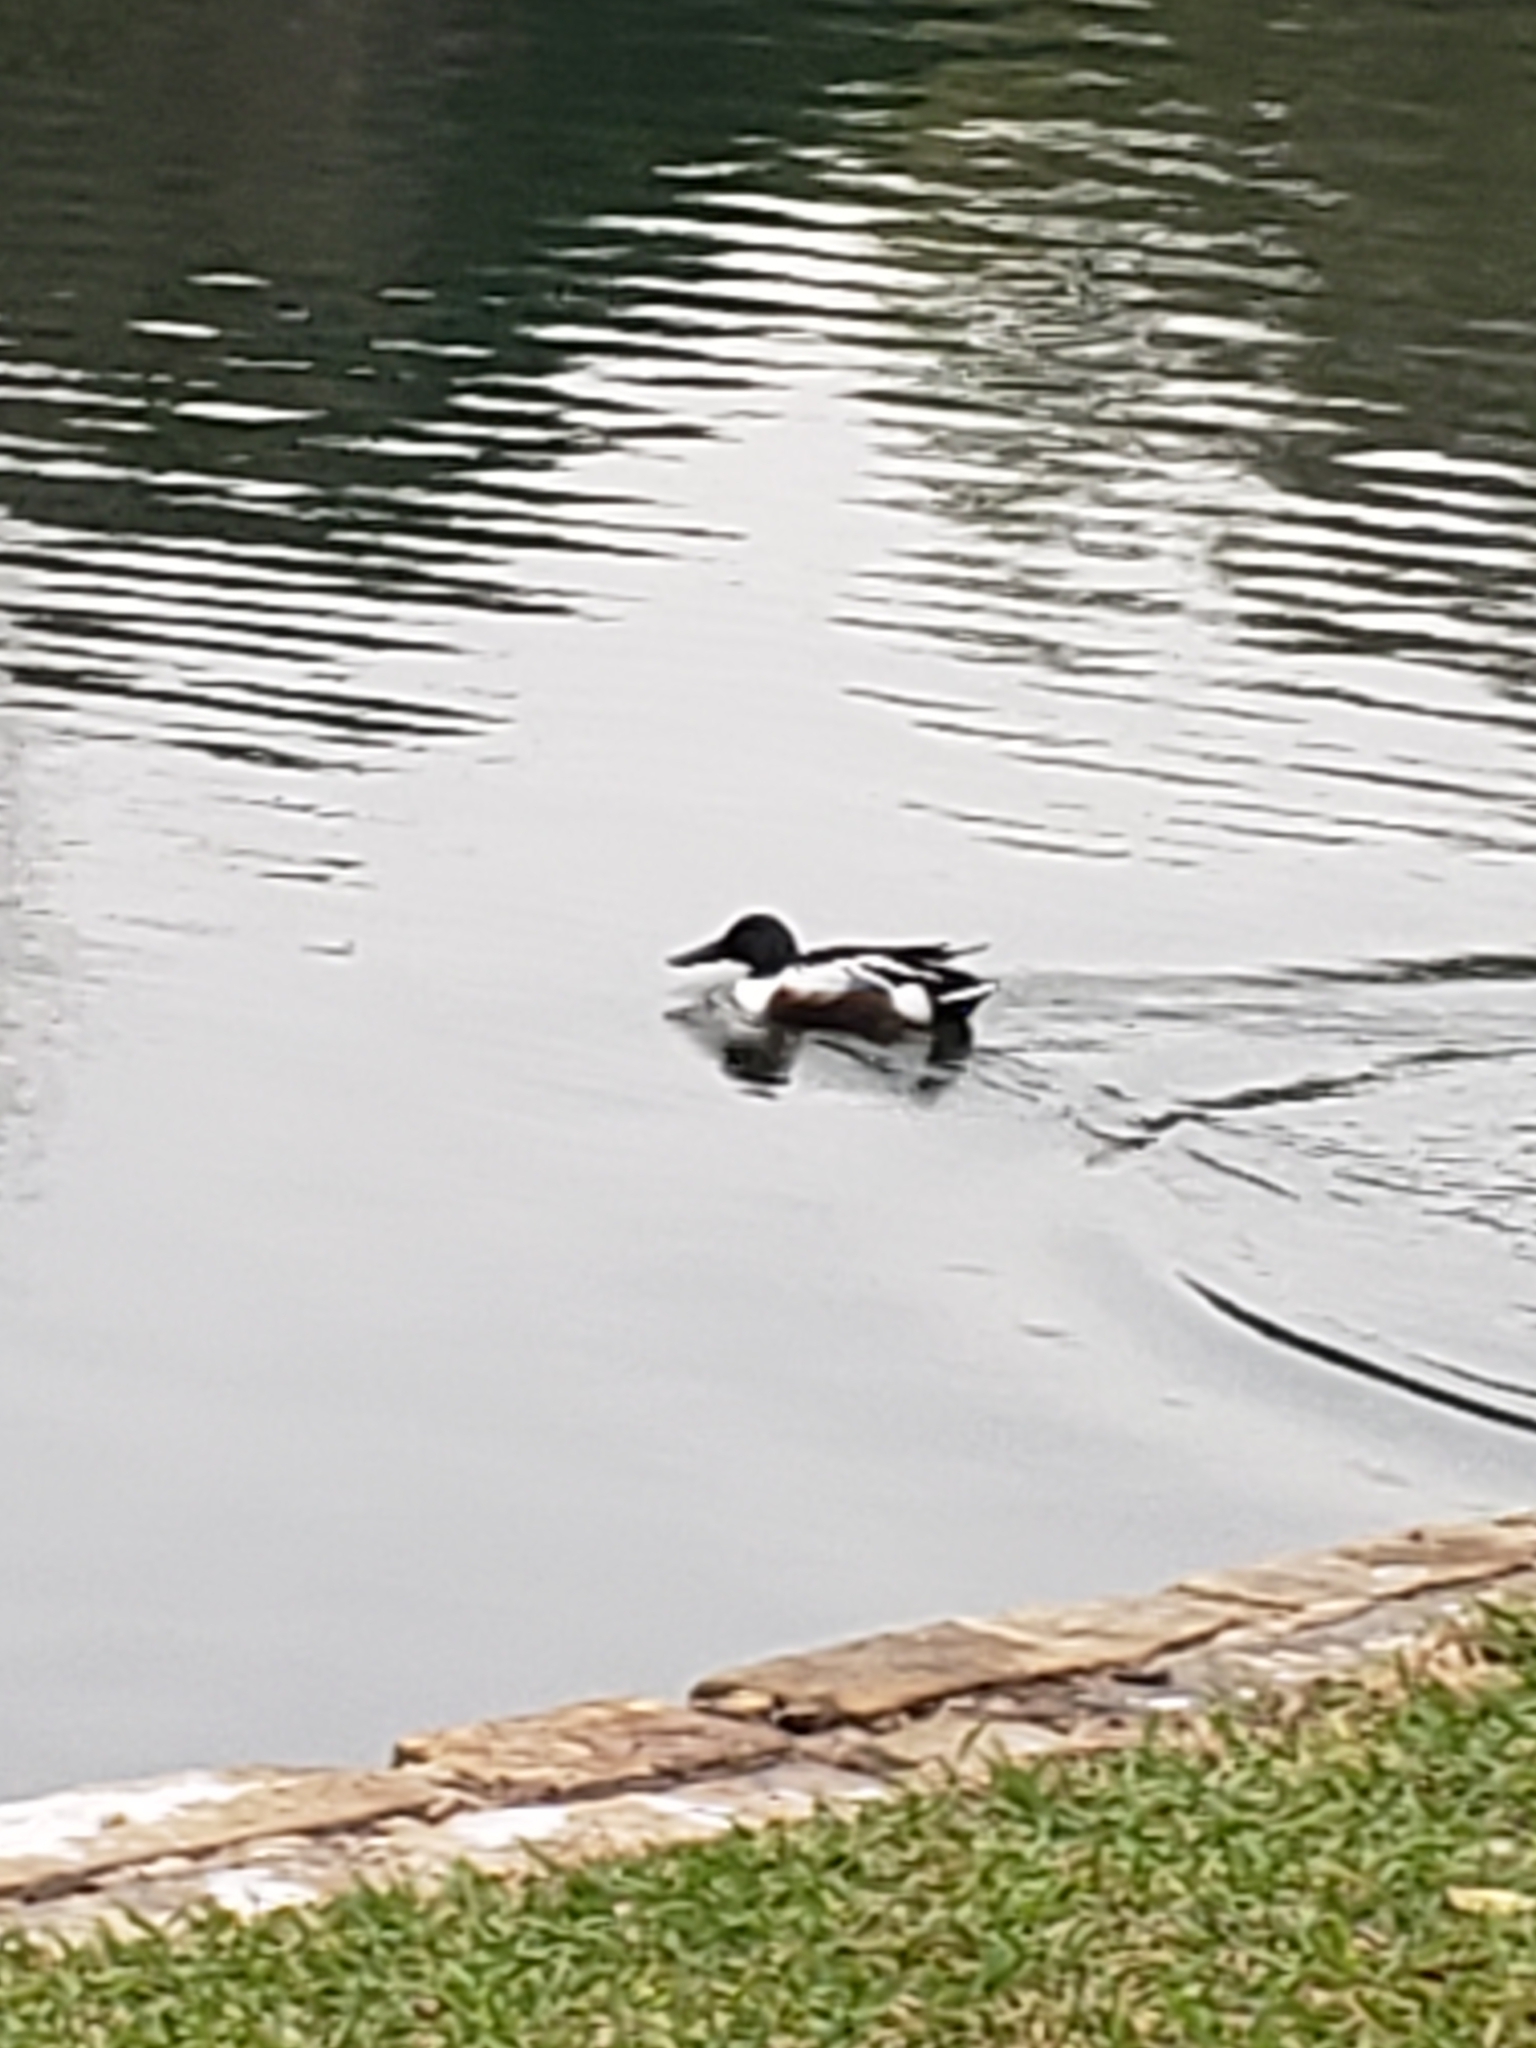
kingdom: Animalia
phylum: Chordata
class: Aves
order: Anseriformes
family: Anatidae
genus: Spatula
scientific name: Spatula clypeata
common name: Northern shoveler
